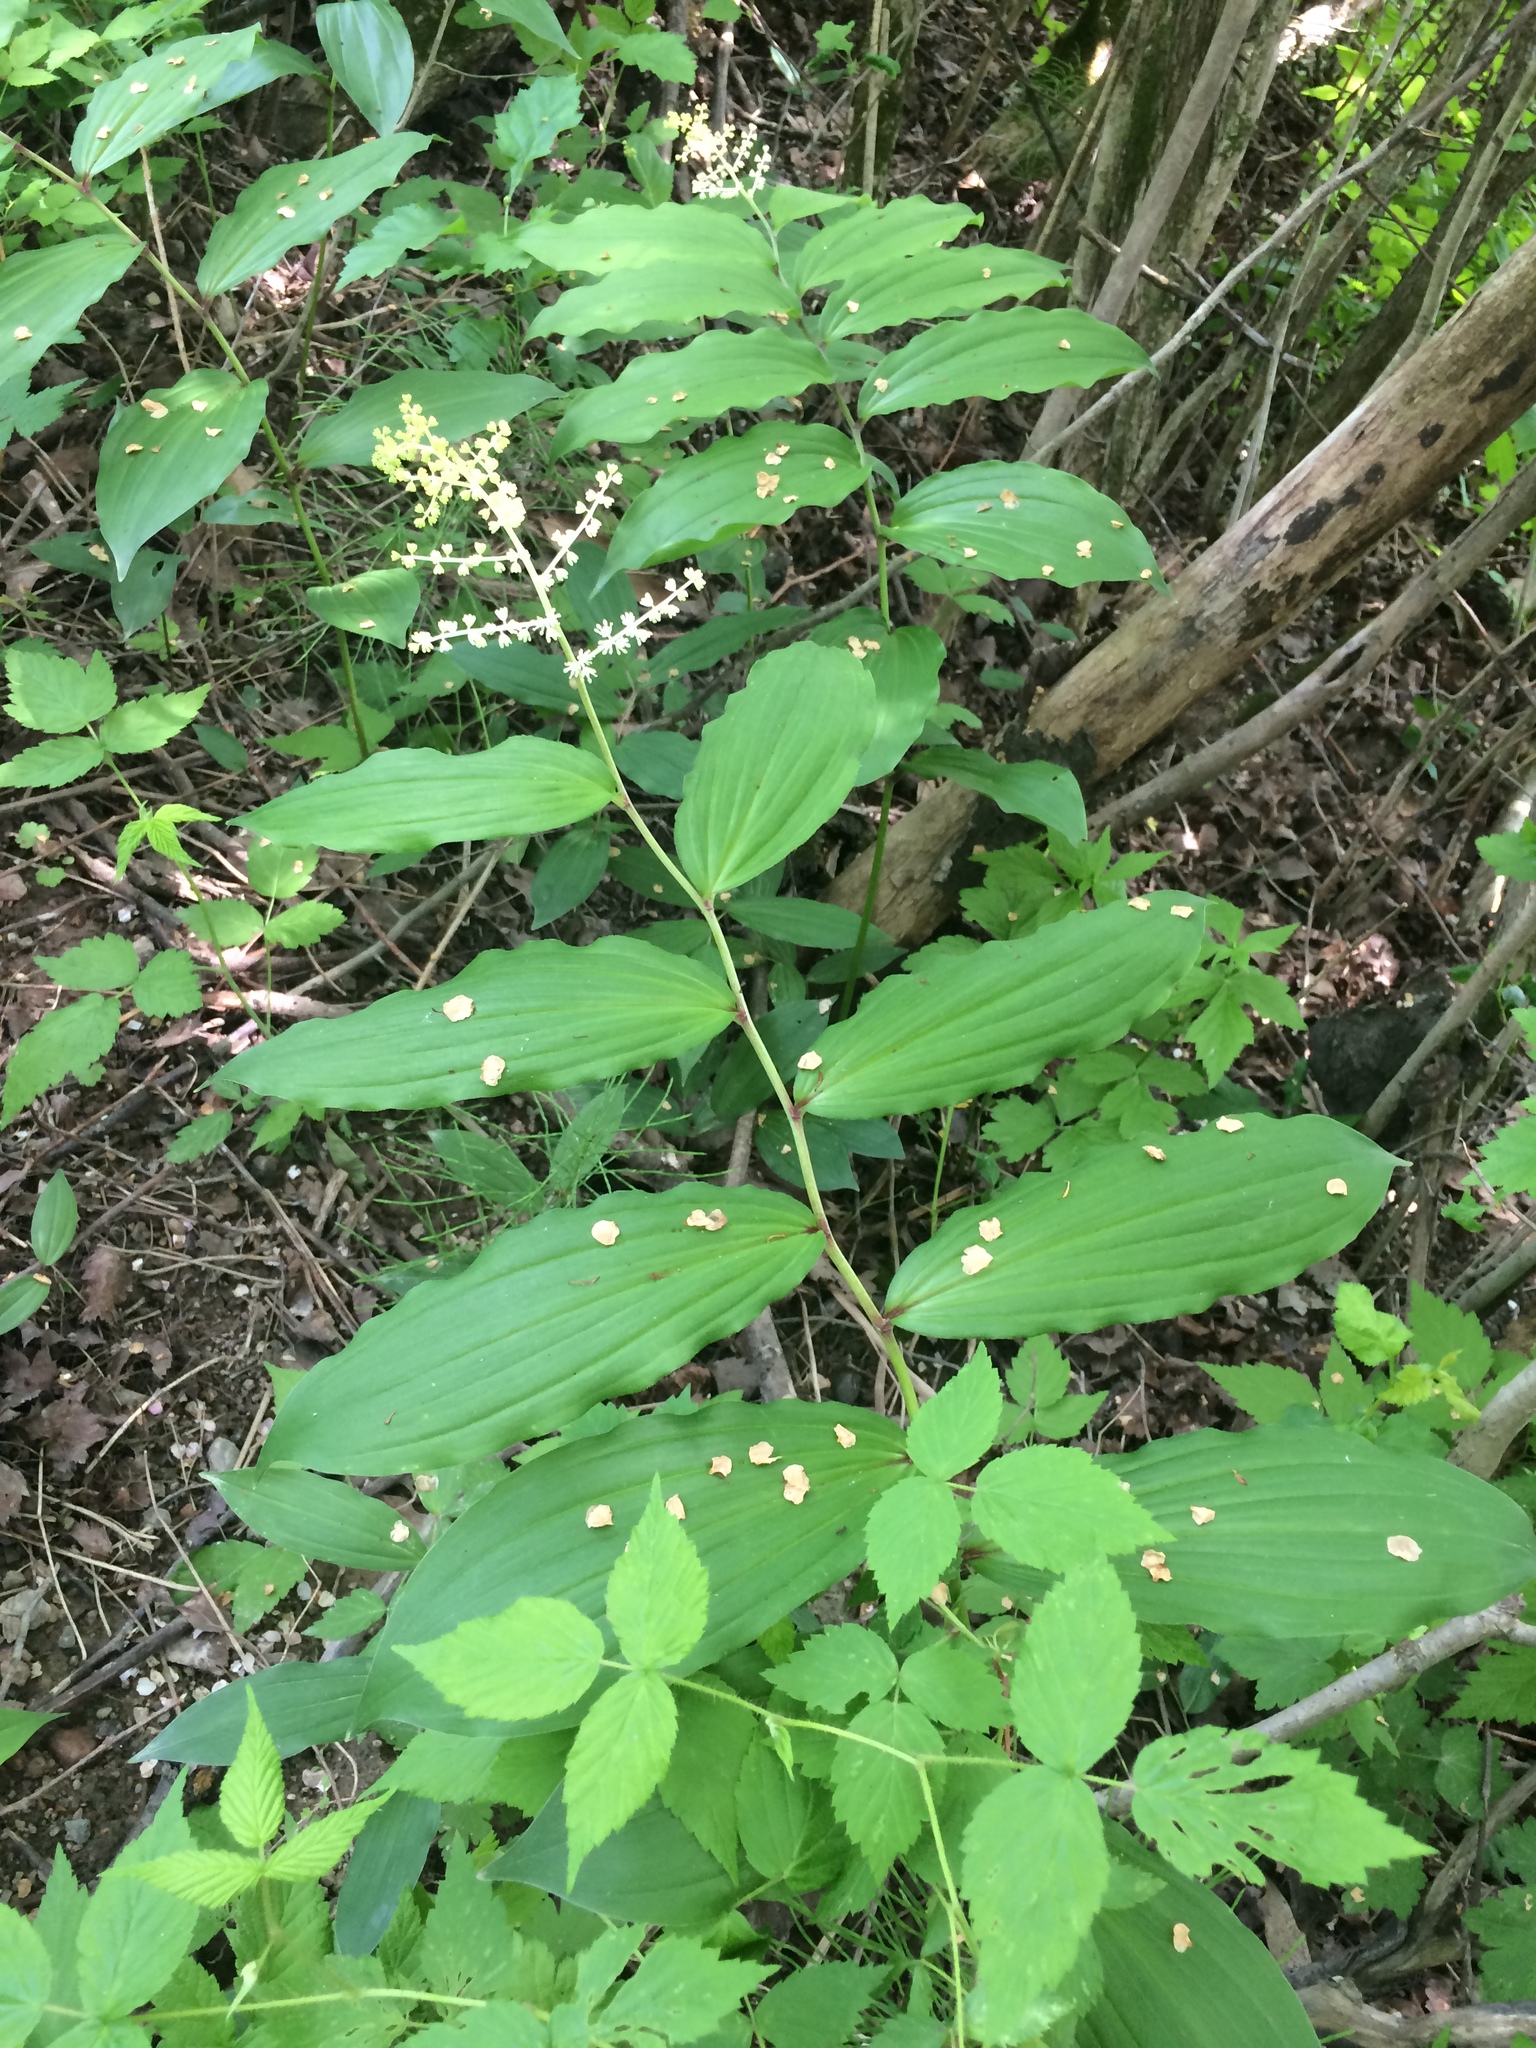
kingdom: Plantae
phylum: Tracheophyta
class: Liliopsida
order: Asparagales
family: Asparagaceae
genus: Maianthemum
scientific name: Maianthemum racemosum
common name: False spikenard
